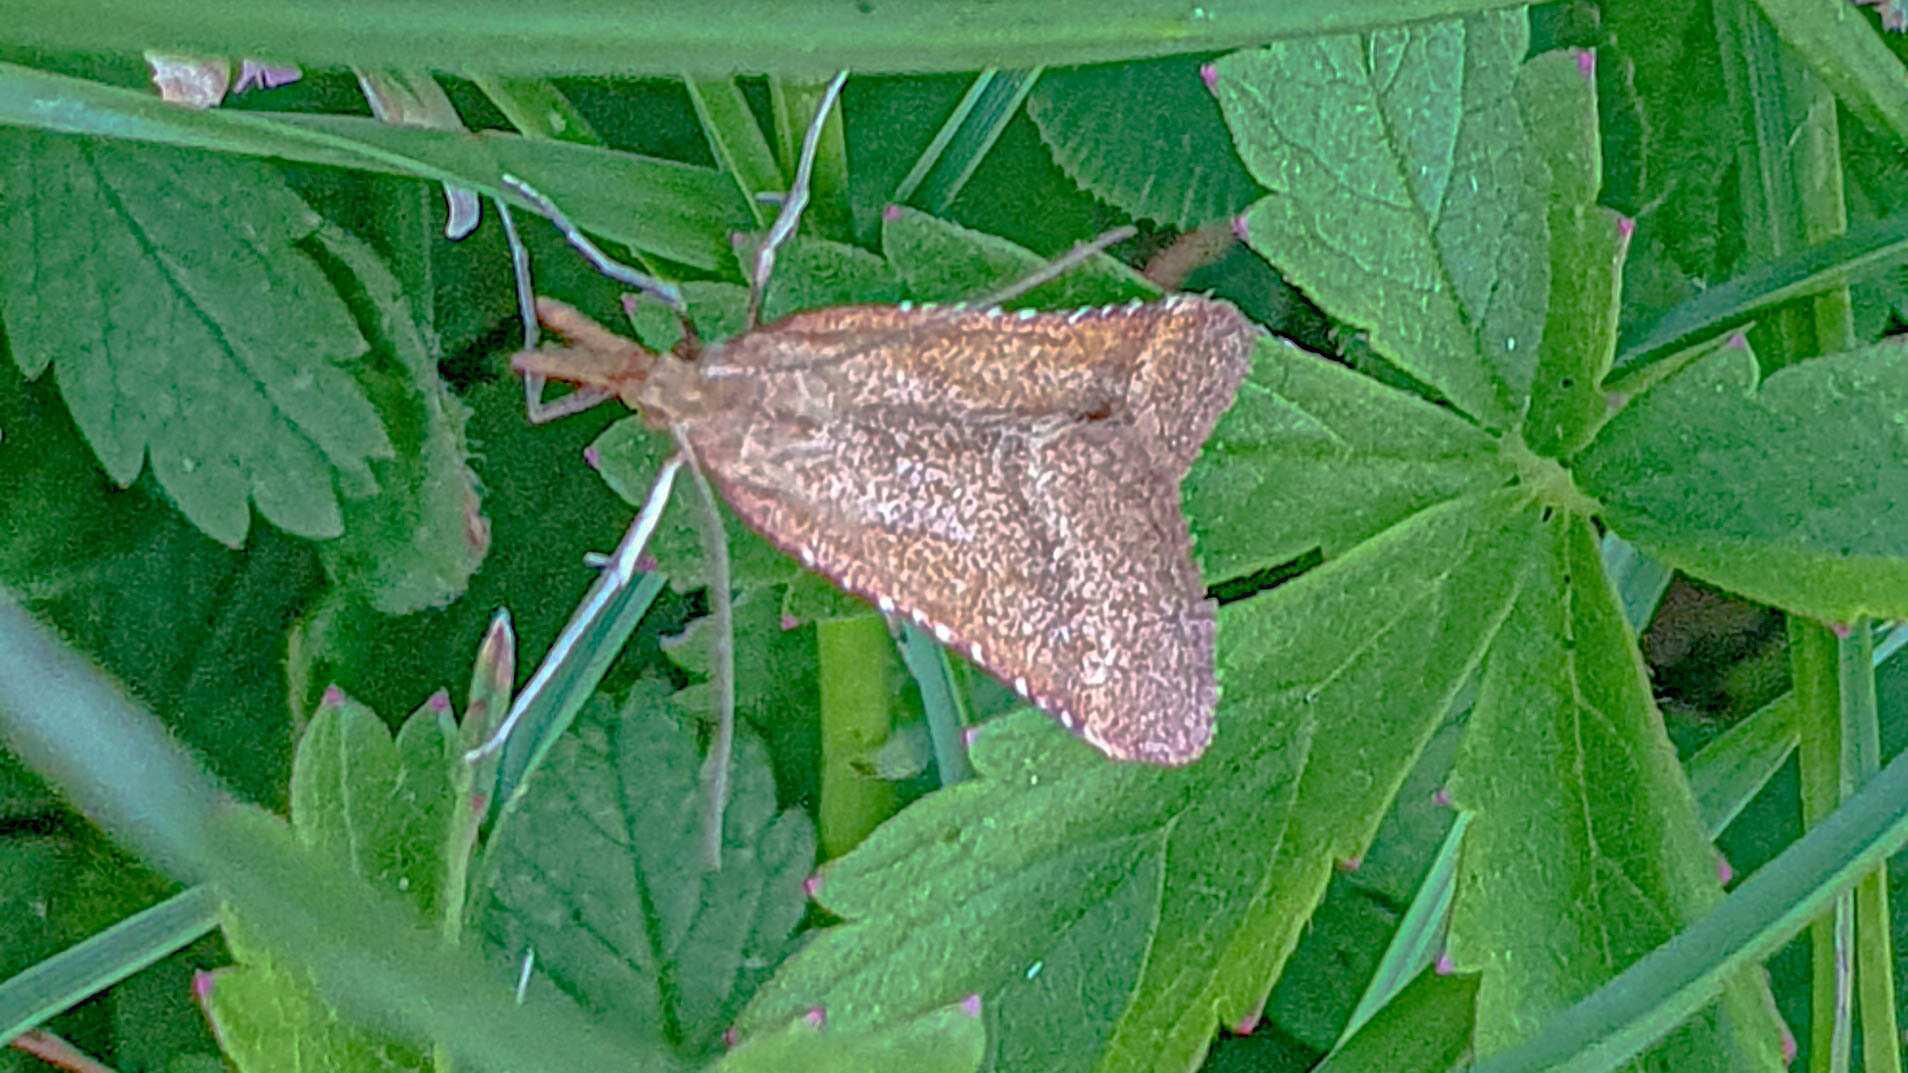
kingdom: Animalia
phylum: Arthropoda
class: Insecta
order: Lepidoptera
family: Pyralidae
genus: Synaphe
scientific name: Synaphe punctalis
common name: Long-legged tabby
